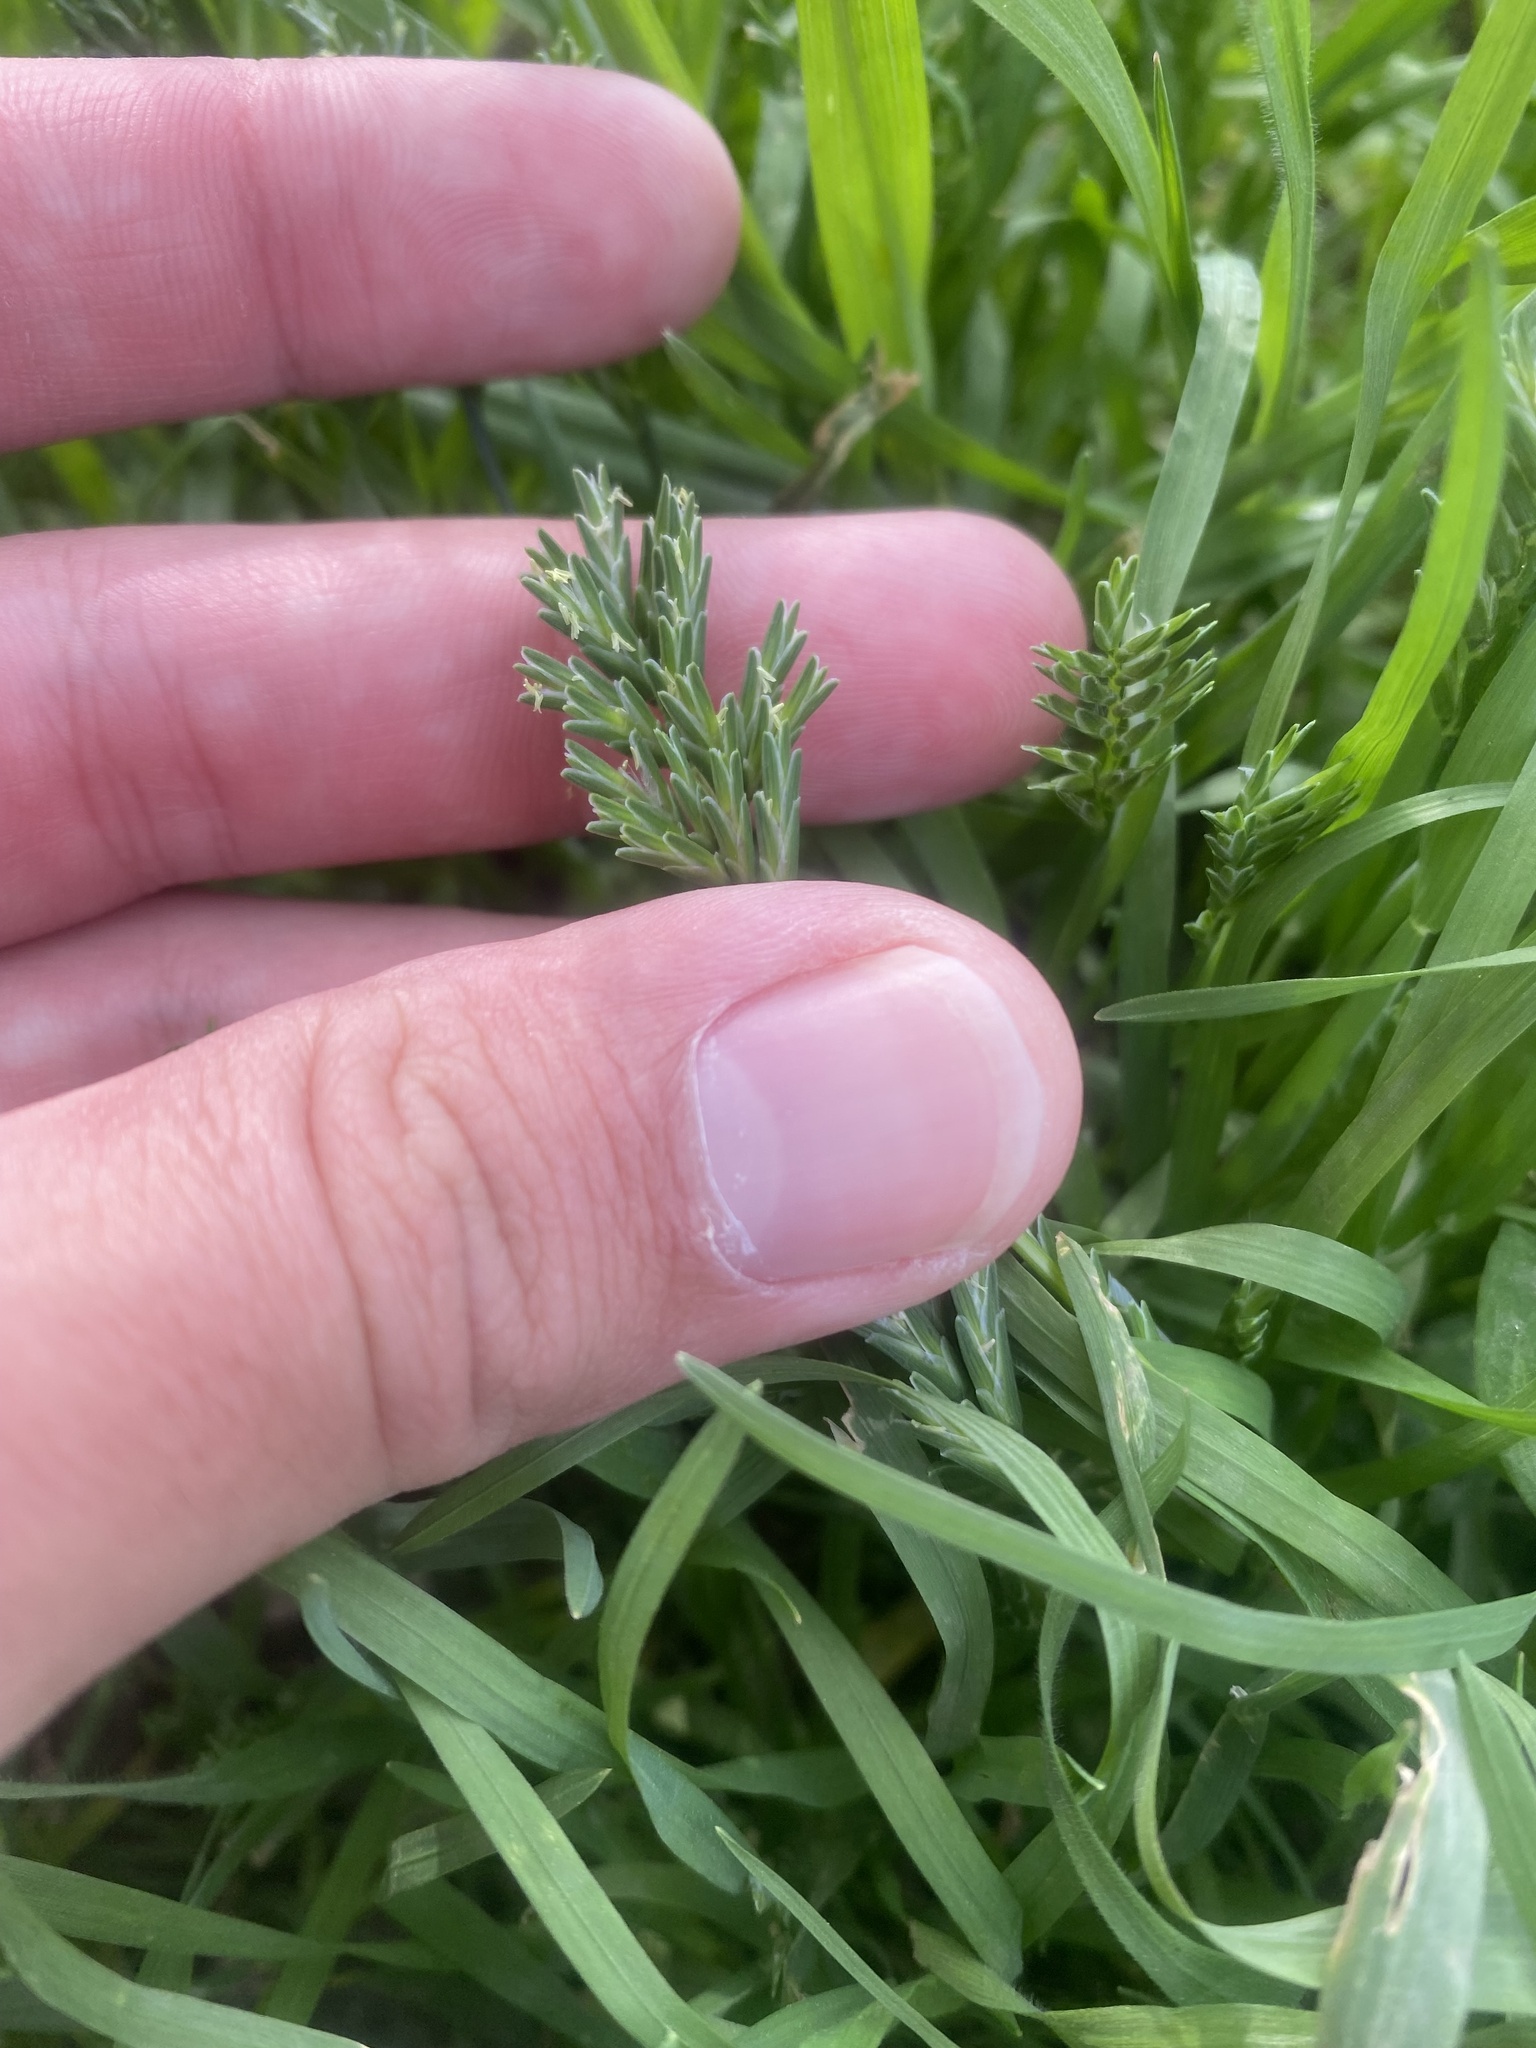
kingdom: Plantae
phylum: Tracheophyta
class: Liliopsida
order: Poales
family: Poaceae
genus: Sclerochloa
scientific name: Sclerochloa dura
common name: Common hardgrass
